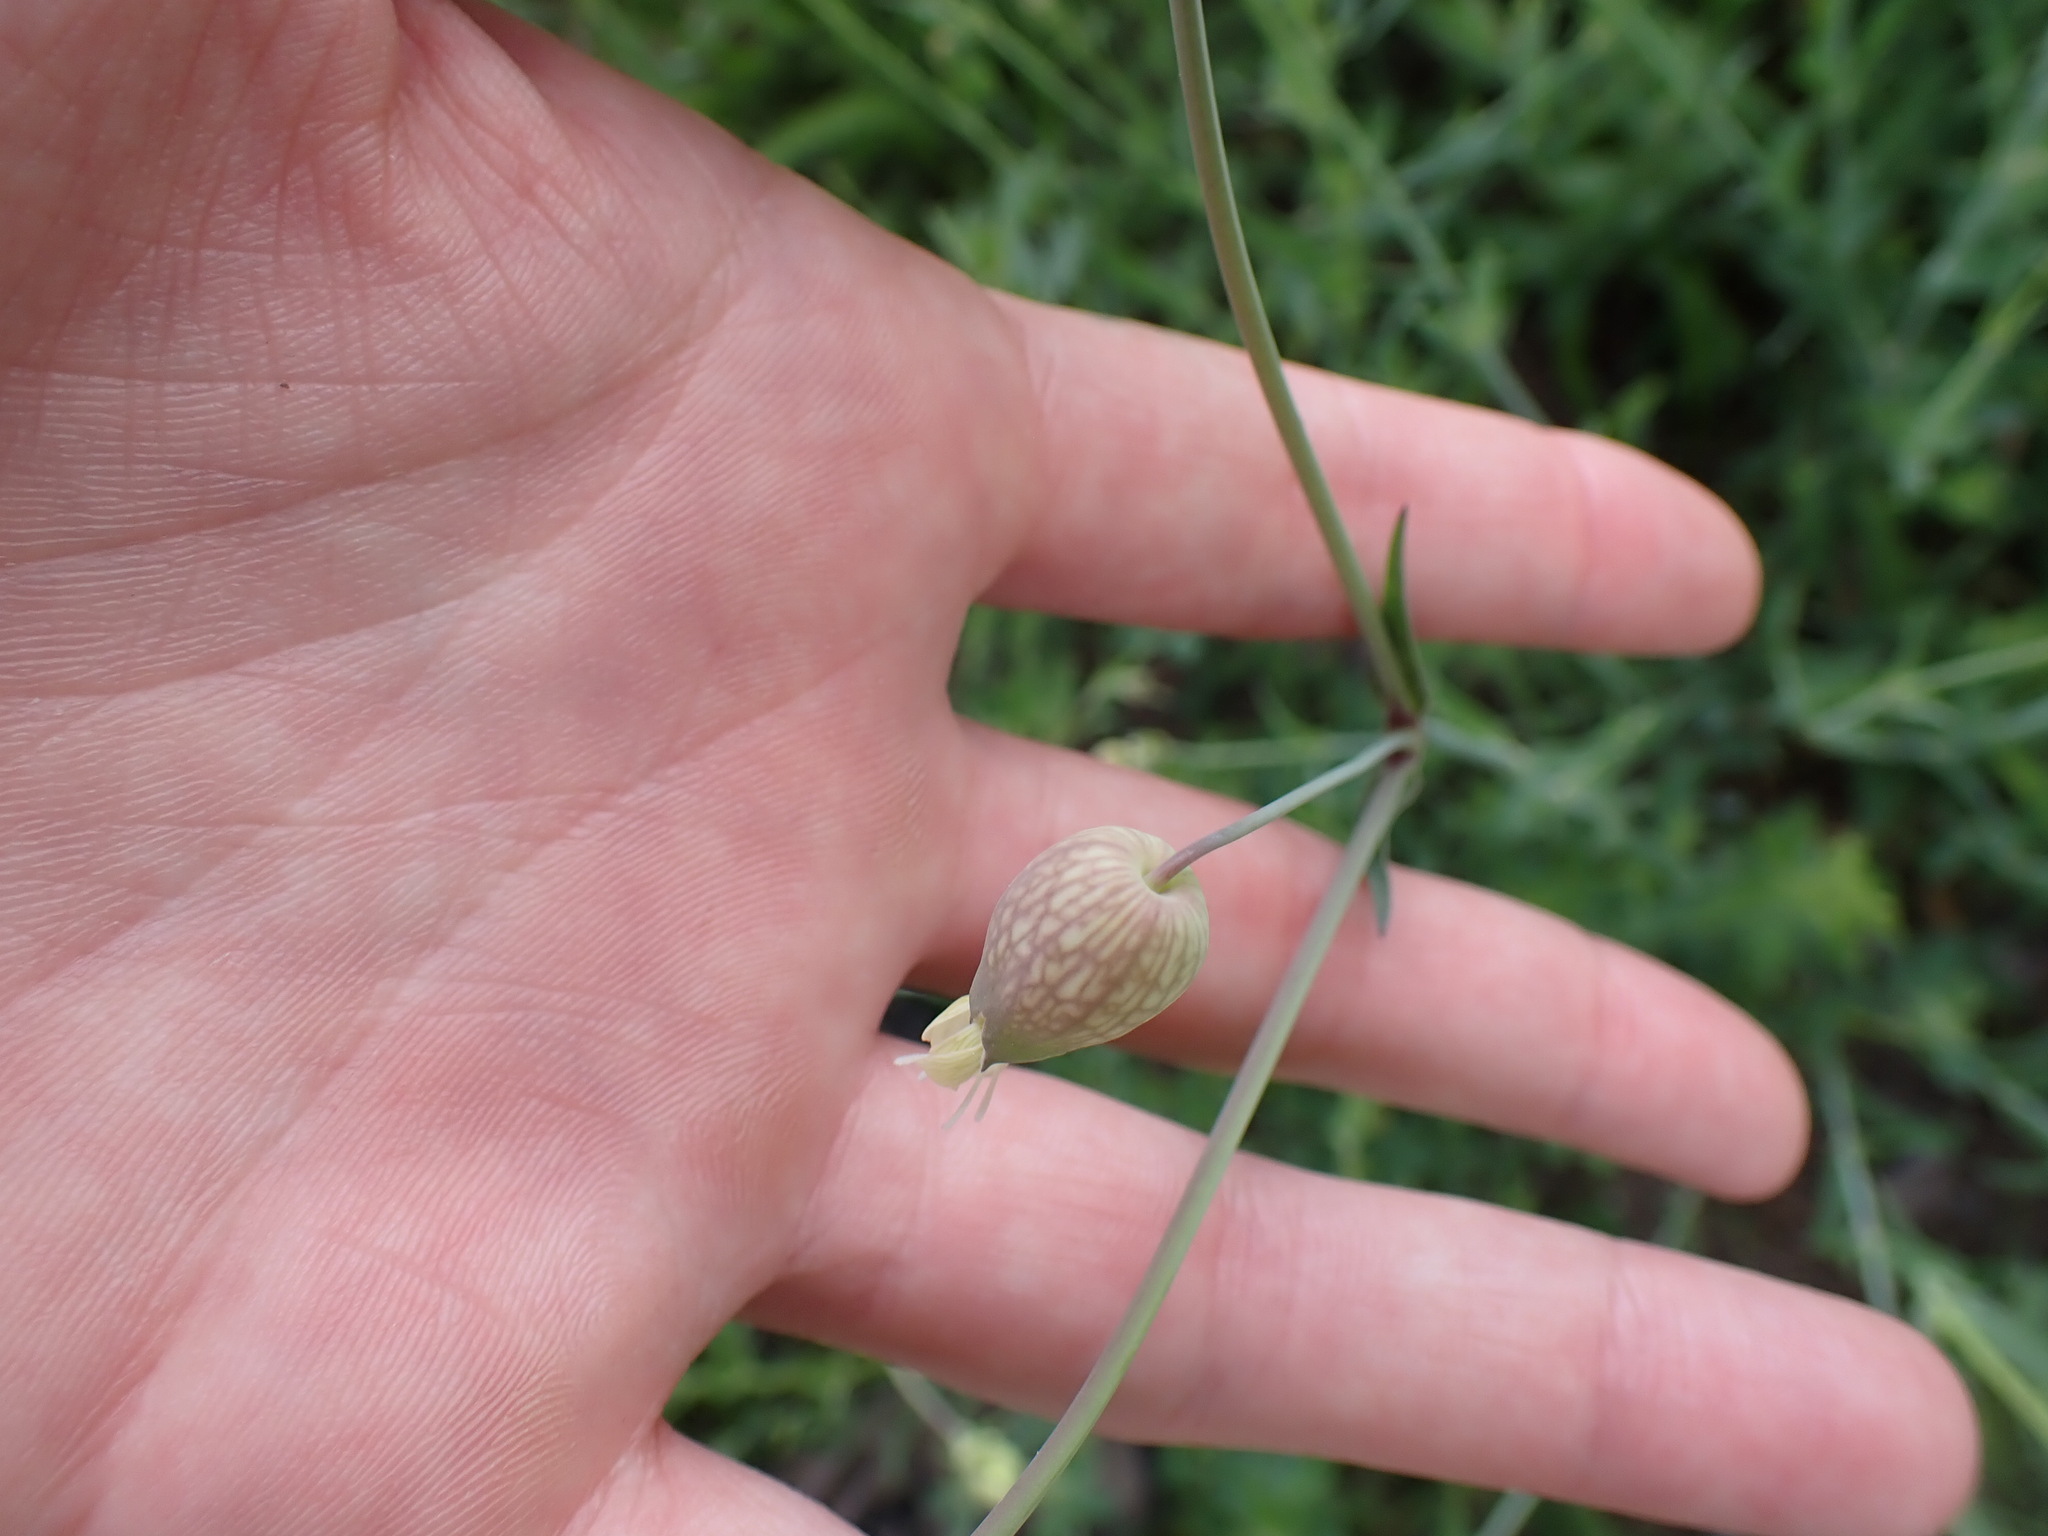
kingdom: Plantae
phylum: Tracheophyta
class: Magnoliopsida
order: Caryophyllales
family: Caryophyllaceae
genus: Silene
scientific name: Silene vulgaris
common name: Bladder campion
